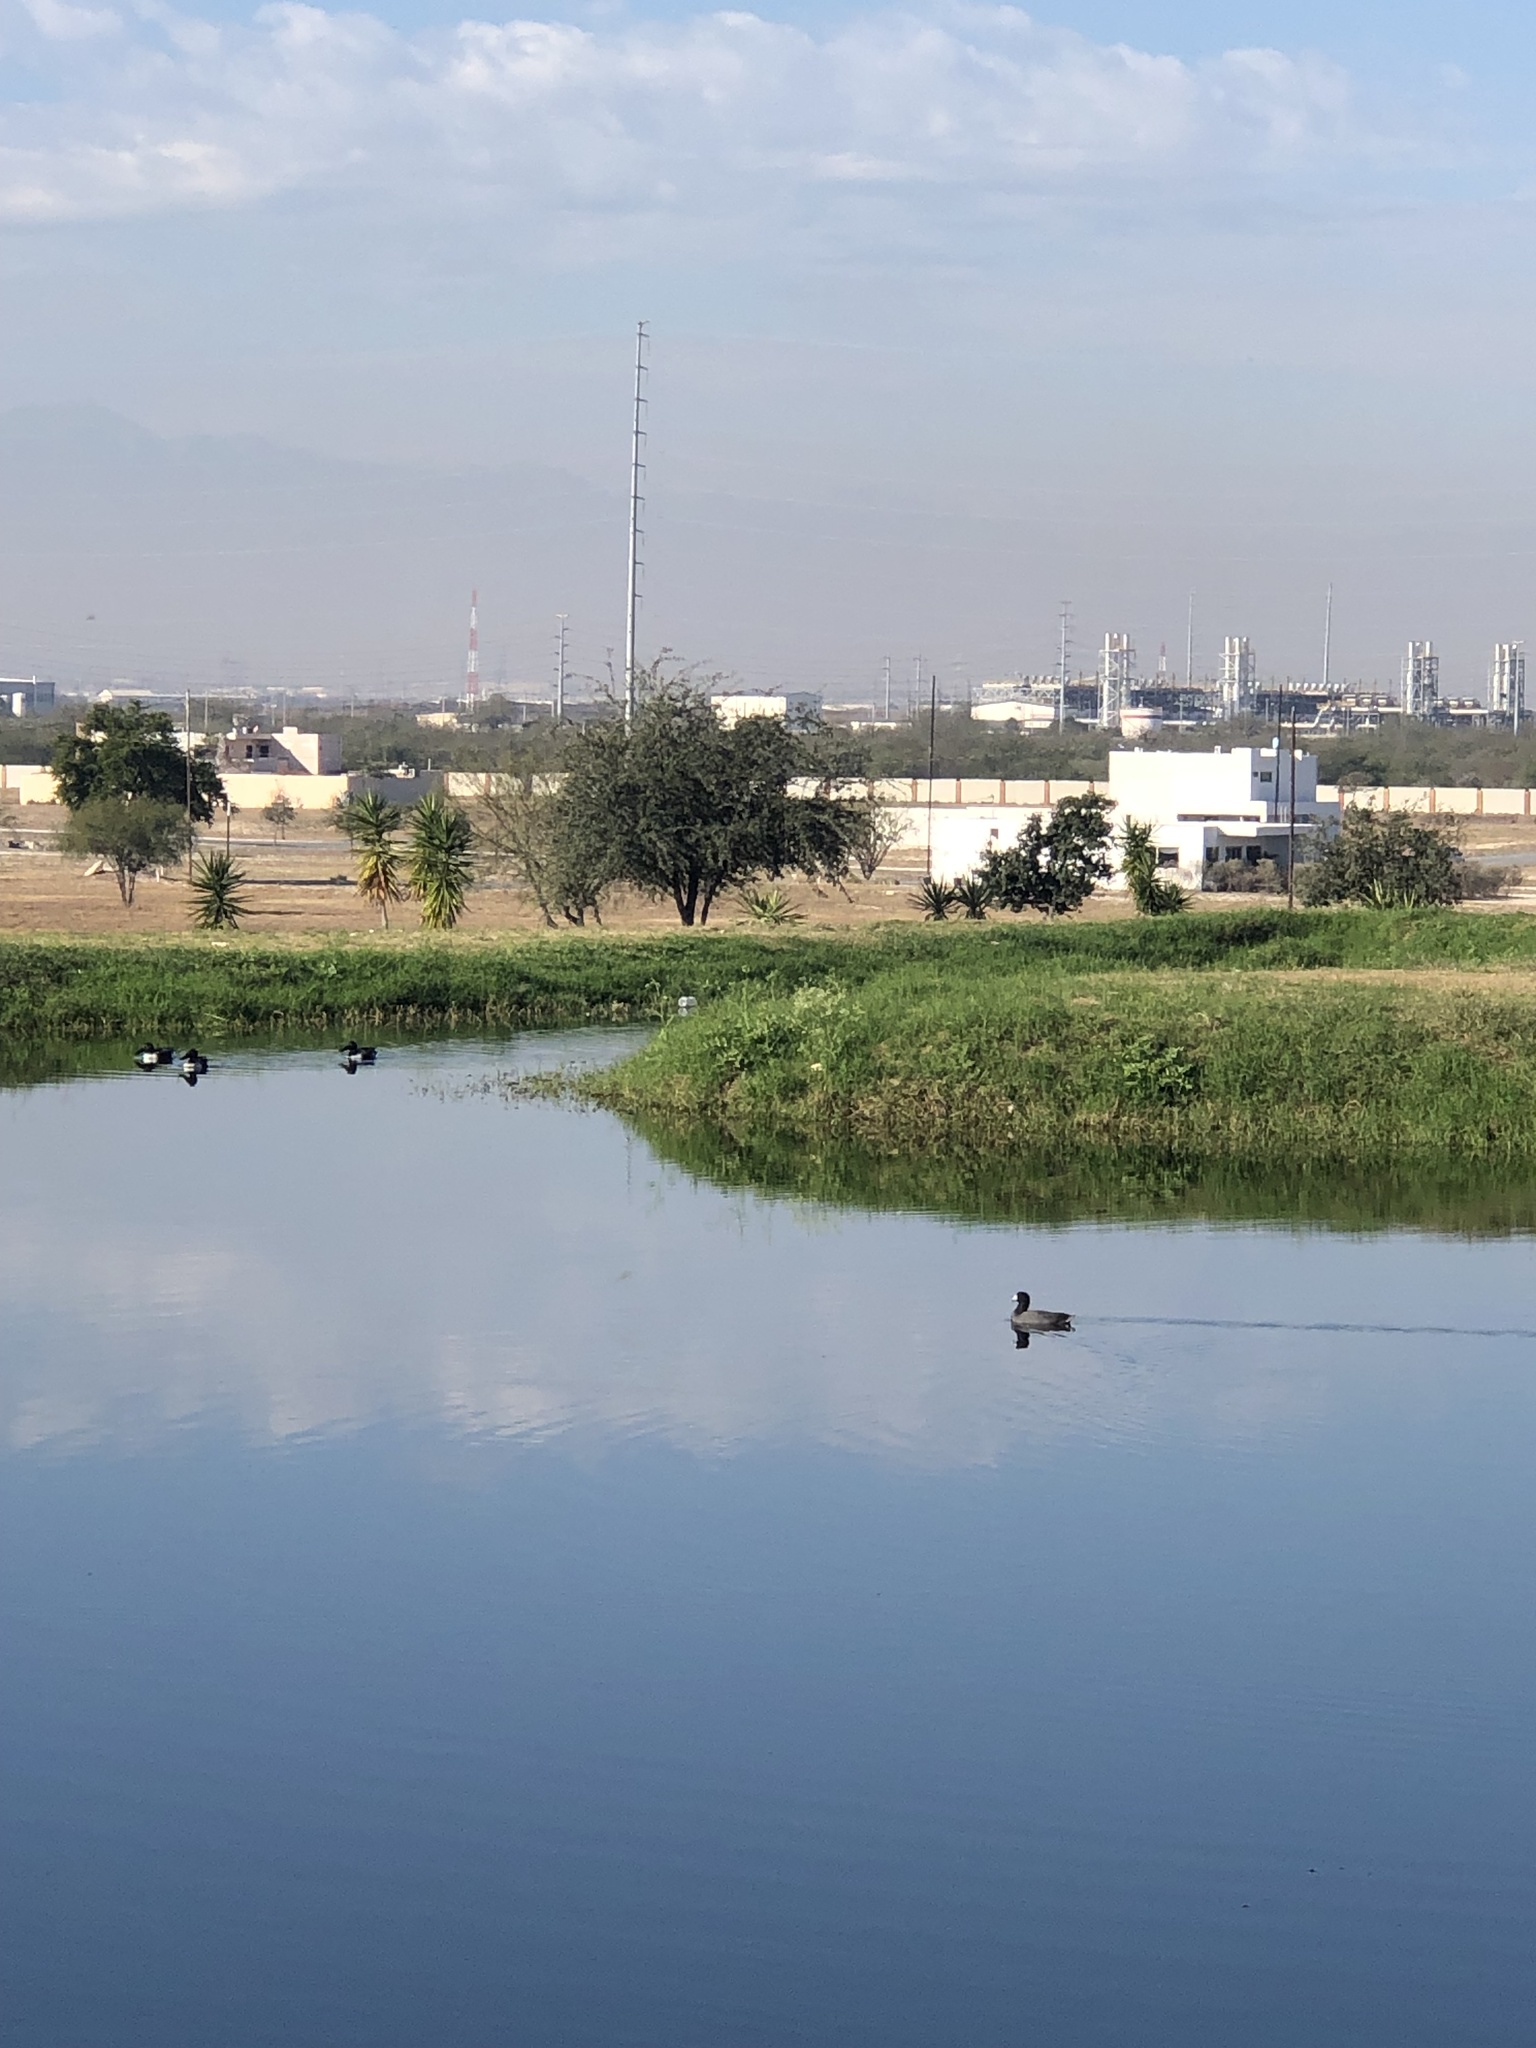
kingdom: Animalia
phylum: Chordata
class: Aves
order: Gruiformes
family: Rallidae
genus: Fulica
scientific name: Fulica americana
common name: American coot
